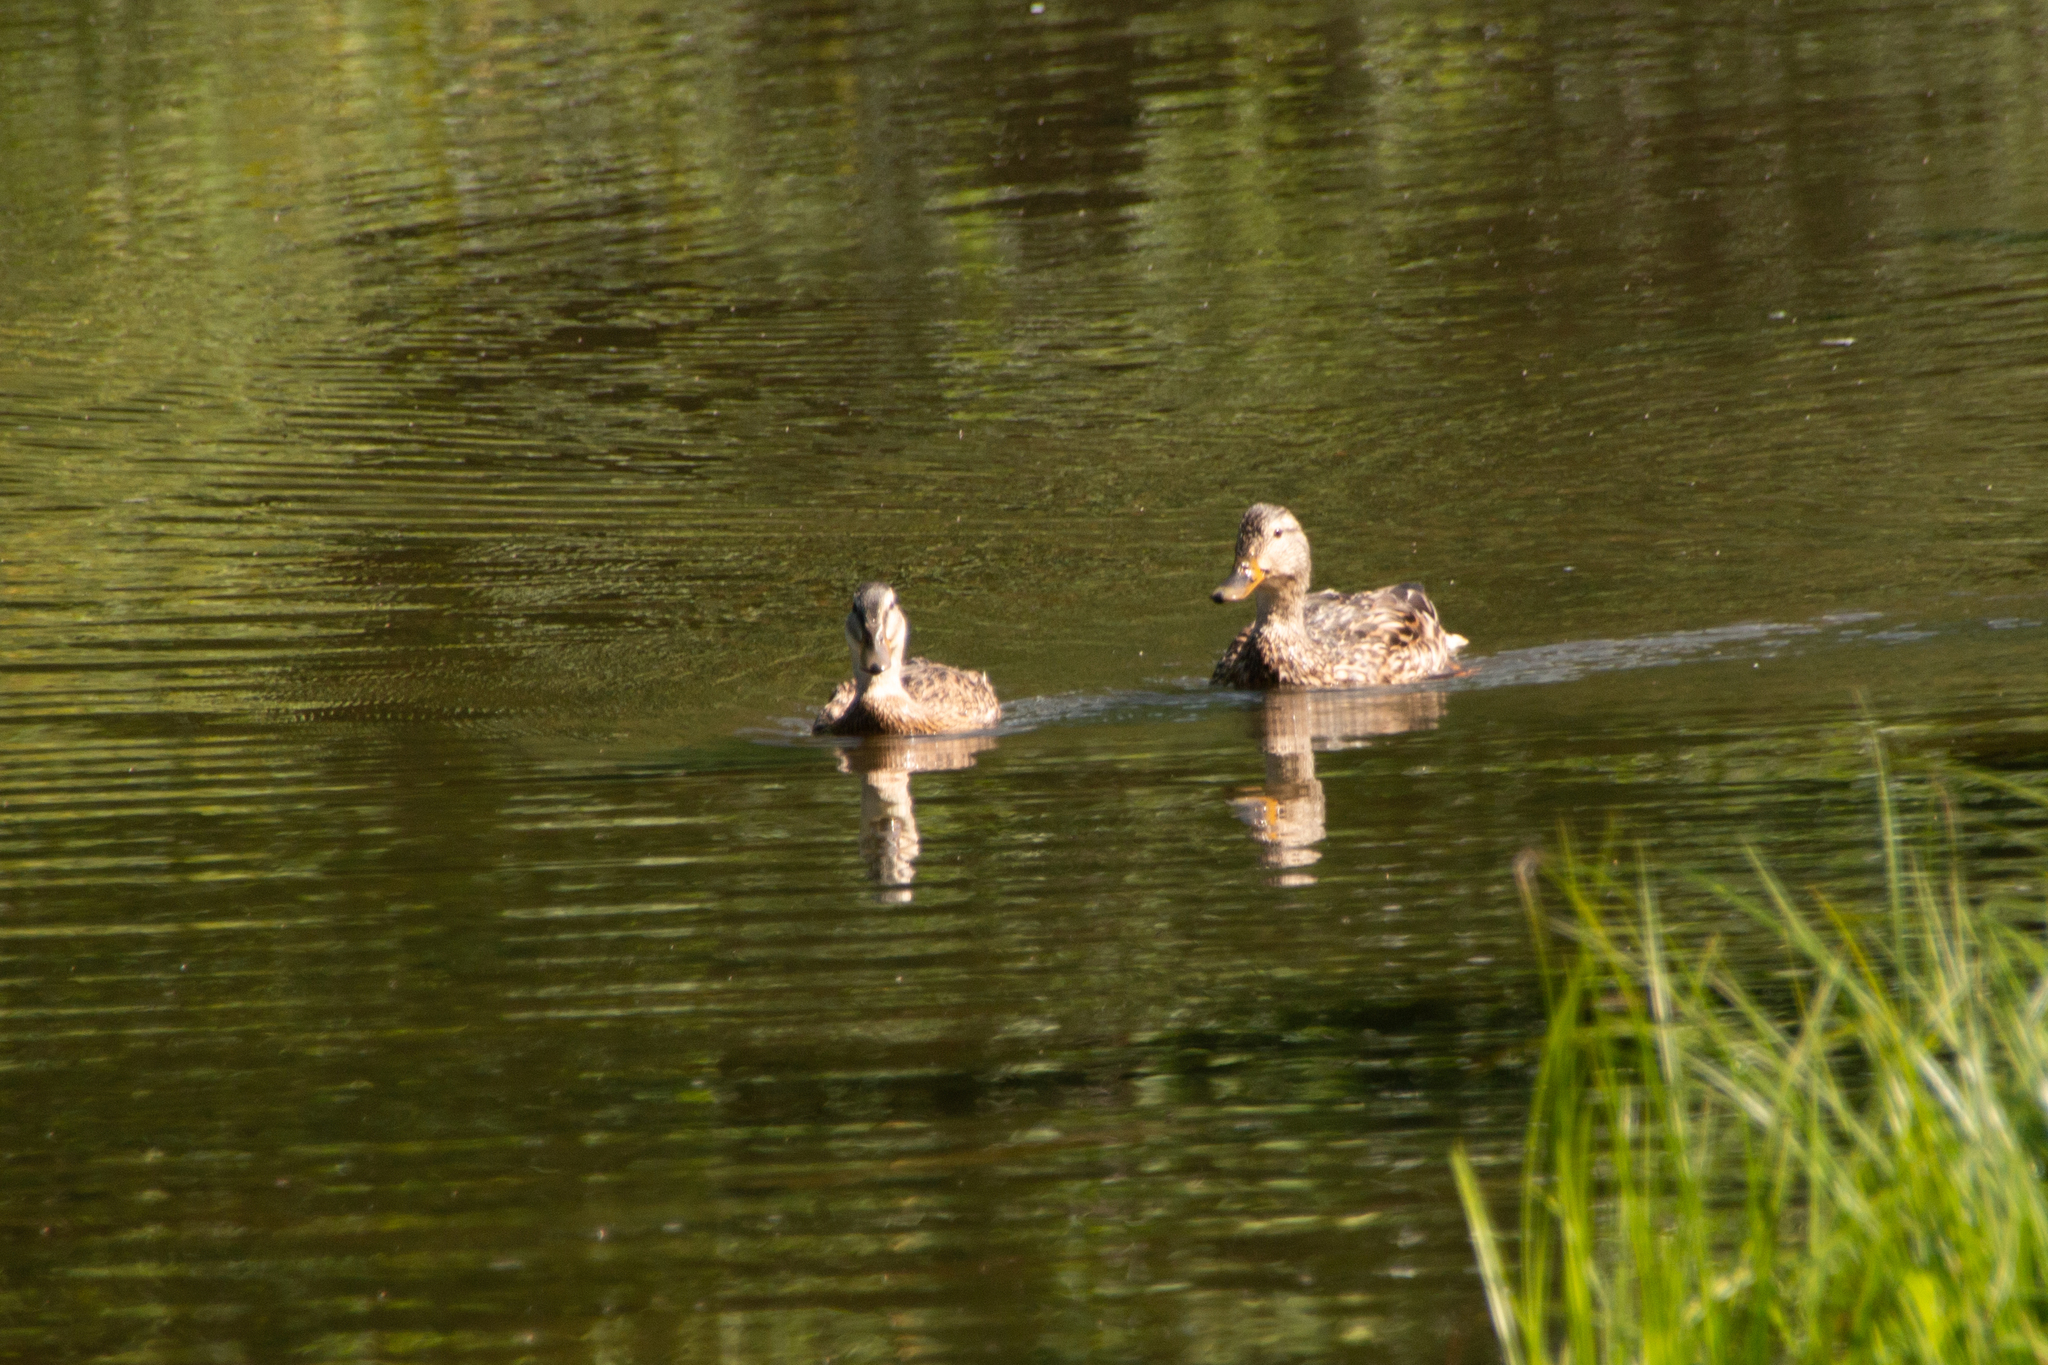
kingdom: Animalia
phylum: Chordata
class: Aves
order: Anseriformes
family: Anatidae
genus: Anas
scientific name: Anas platyrhynchos
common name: Mallard
